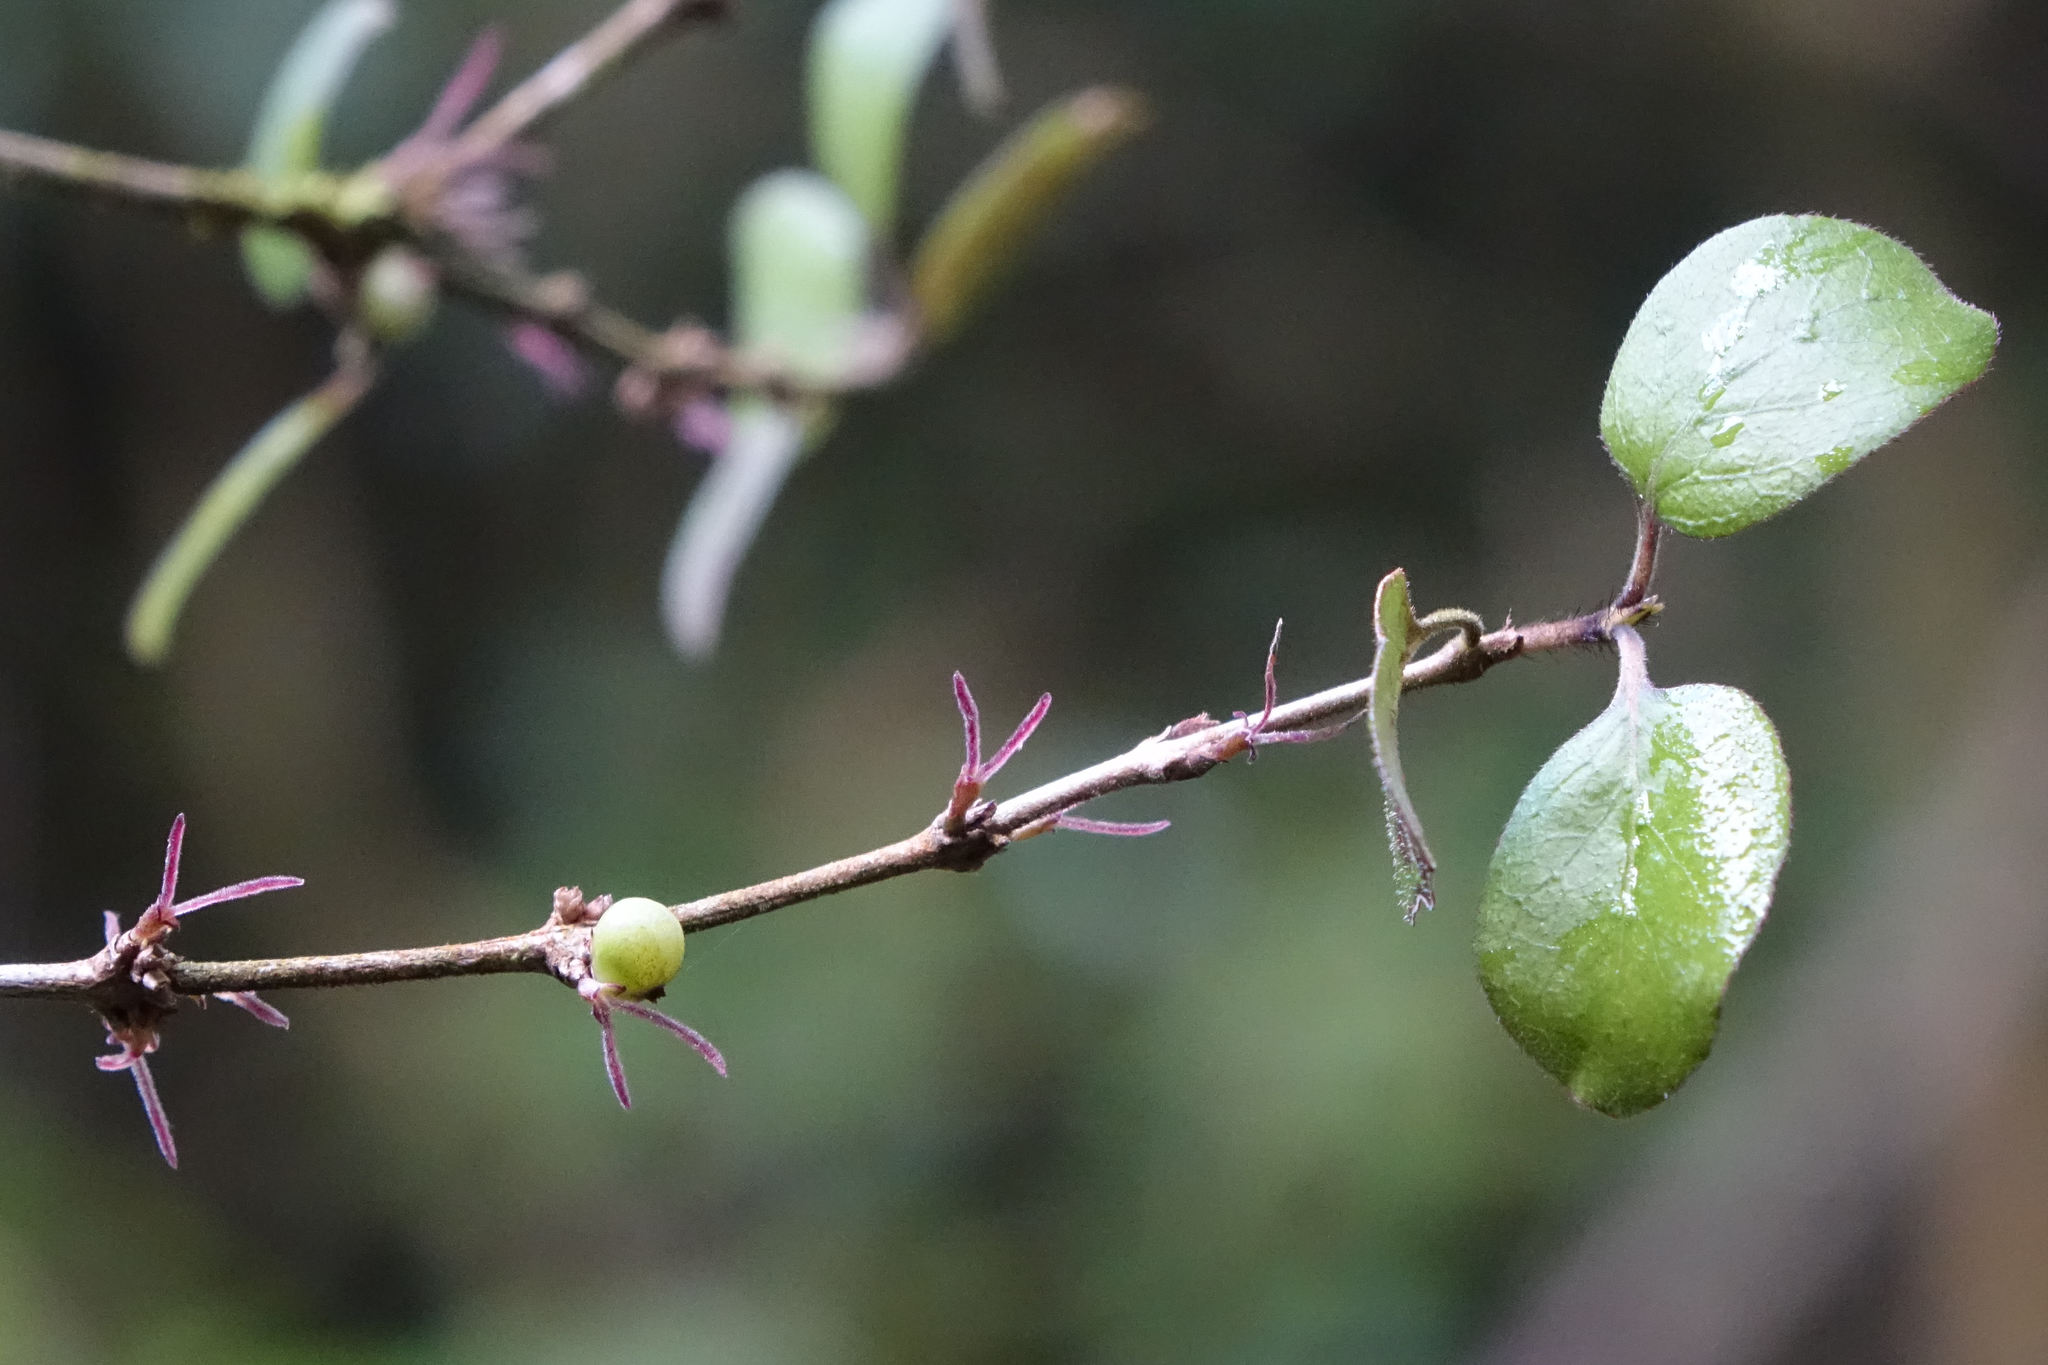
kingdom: Plantae
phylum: Tracheophyta
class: Magnoliopsida
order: Gentianales
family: Rubiaceae
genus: Coprosma
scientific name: Coprosma rotundifolia
